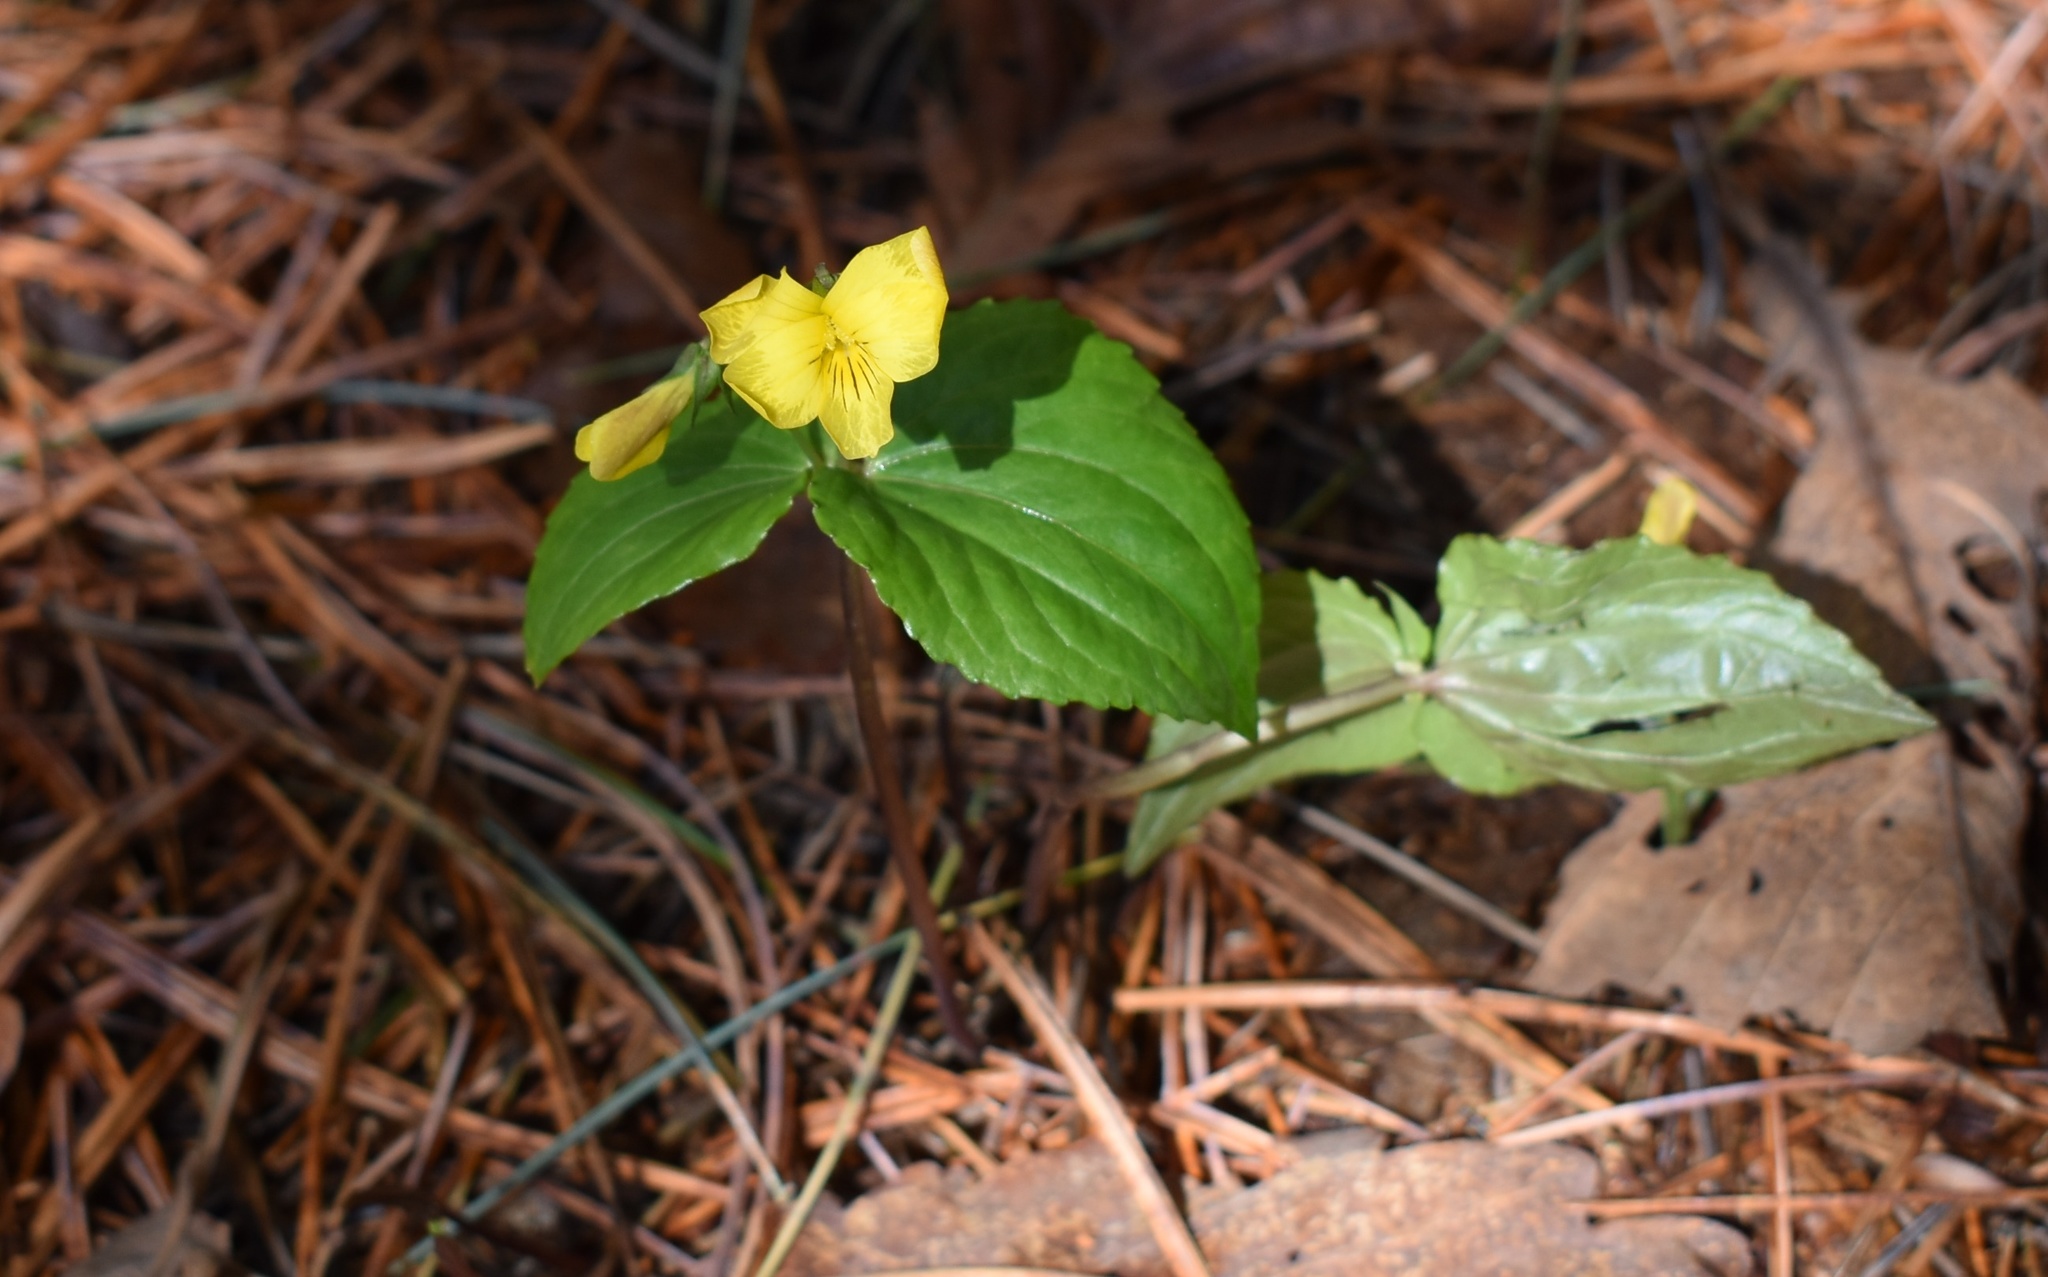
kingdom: Plantae
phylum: Tracheophyta
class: Magnoliopsida
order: Malpighiales
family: Violaceae
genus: Viola
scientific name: Viola orientalis
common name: Golden violet
